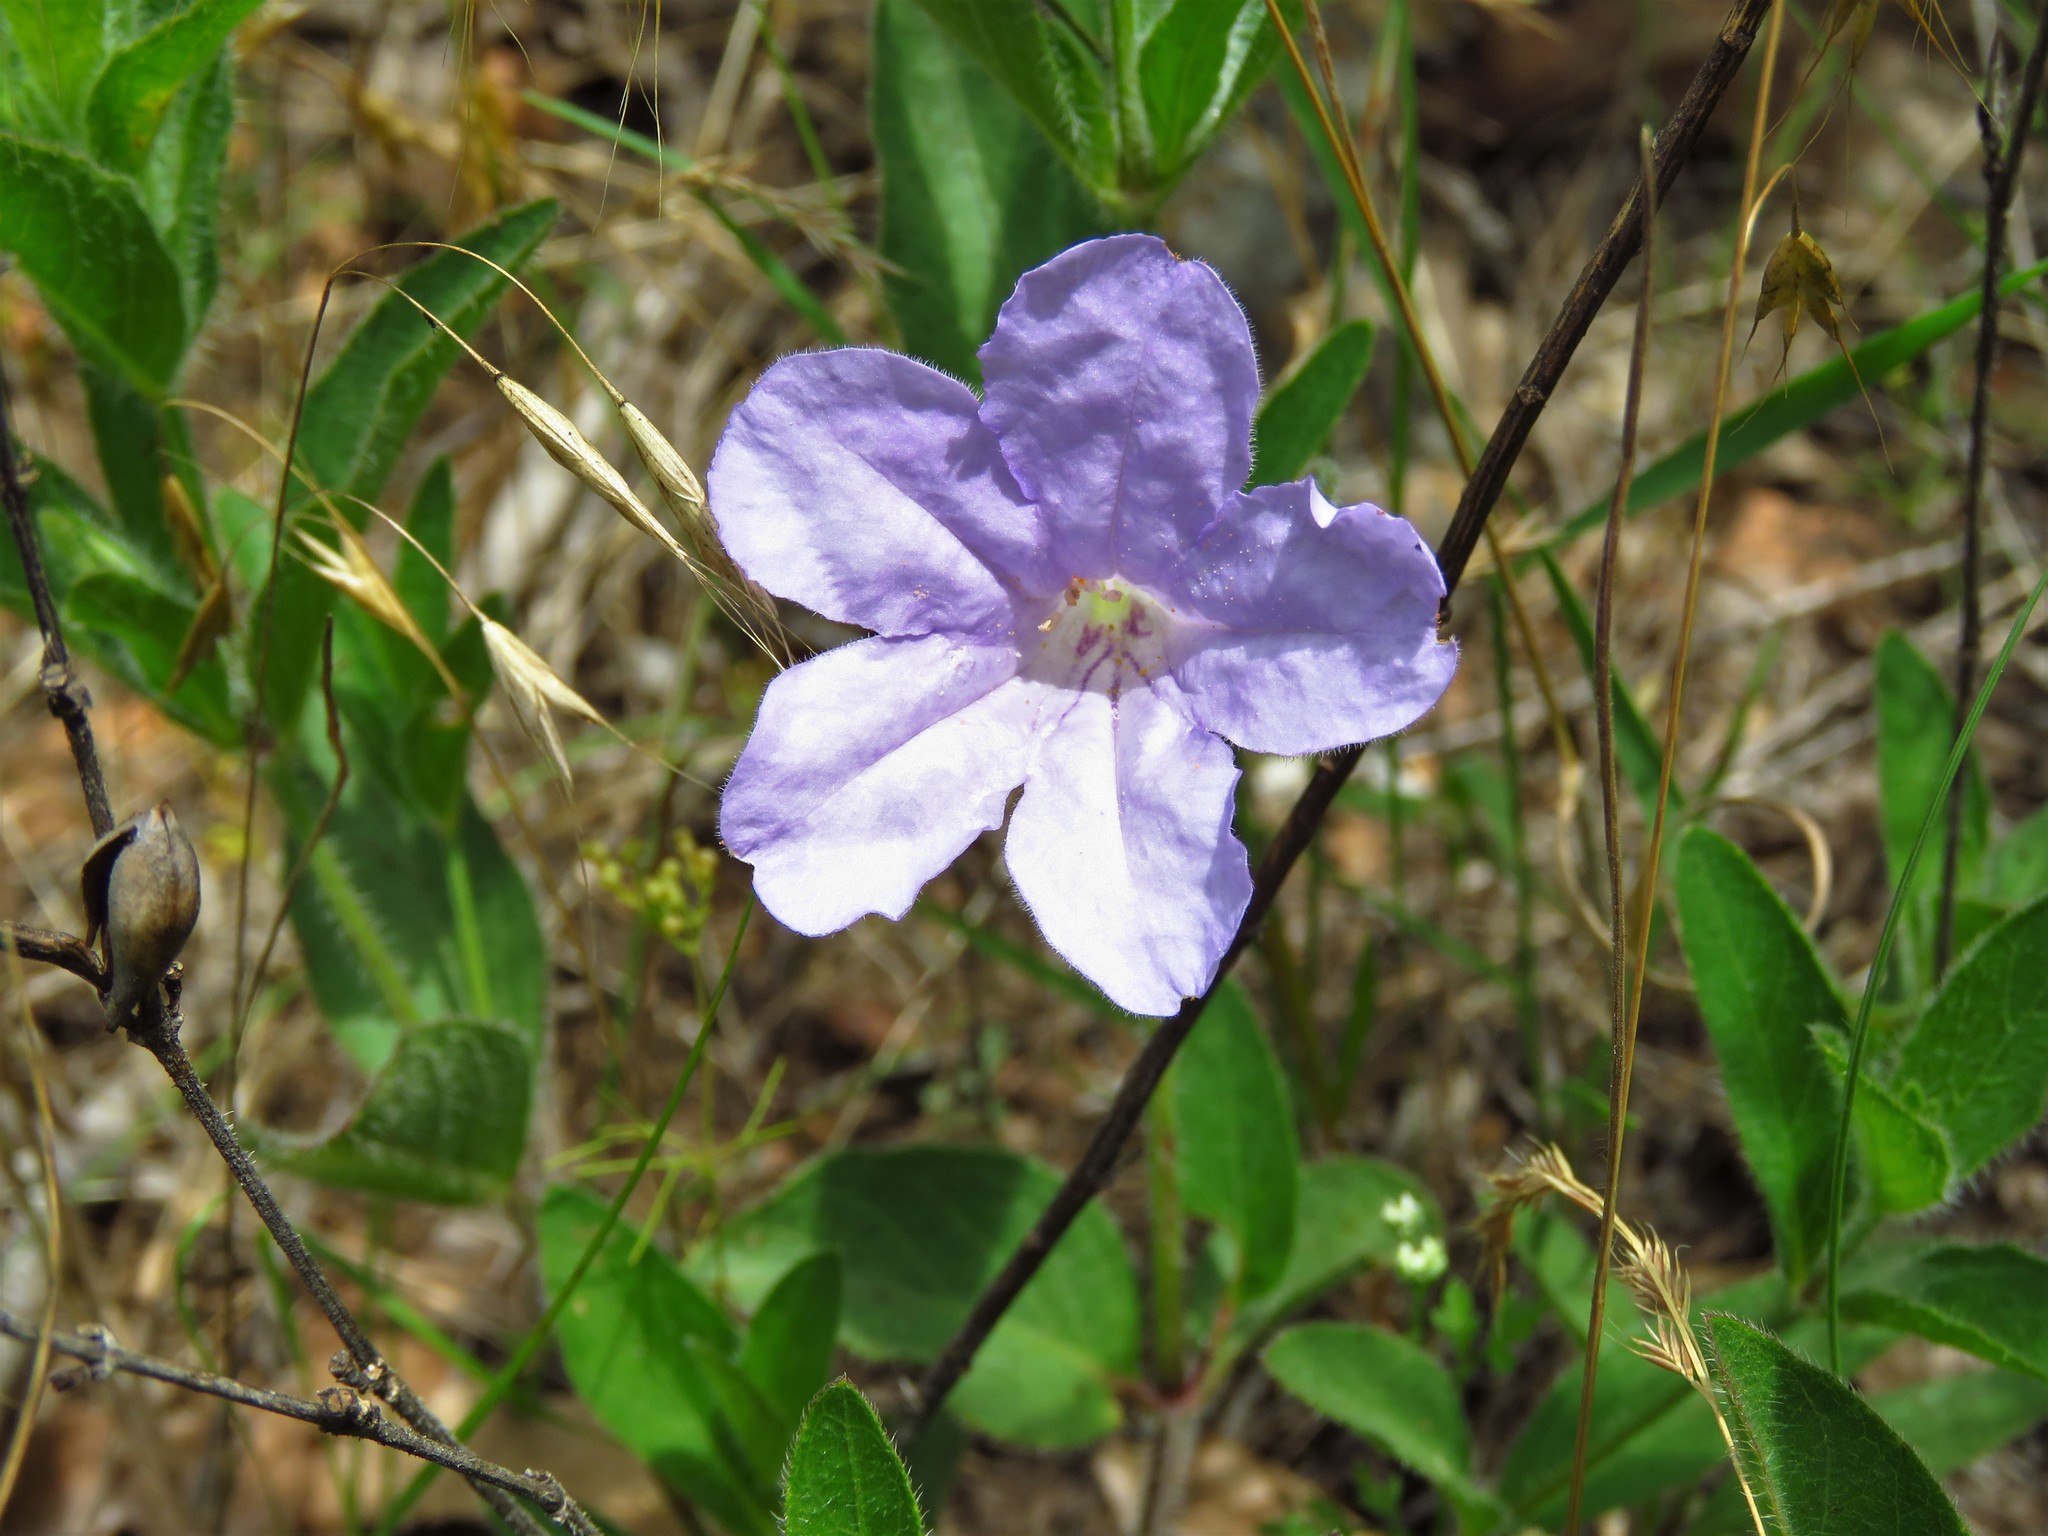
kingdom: Plantae
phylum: Tracheophyta
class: Magnoliopsida
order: Lamiales
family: Acanthaceae
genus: Ruellia
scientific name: Ruellia humilis
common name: Fringe-leaf ruellia
